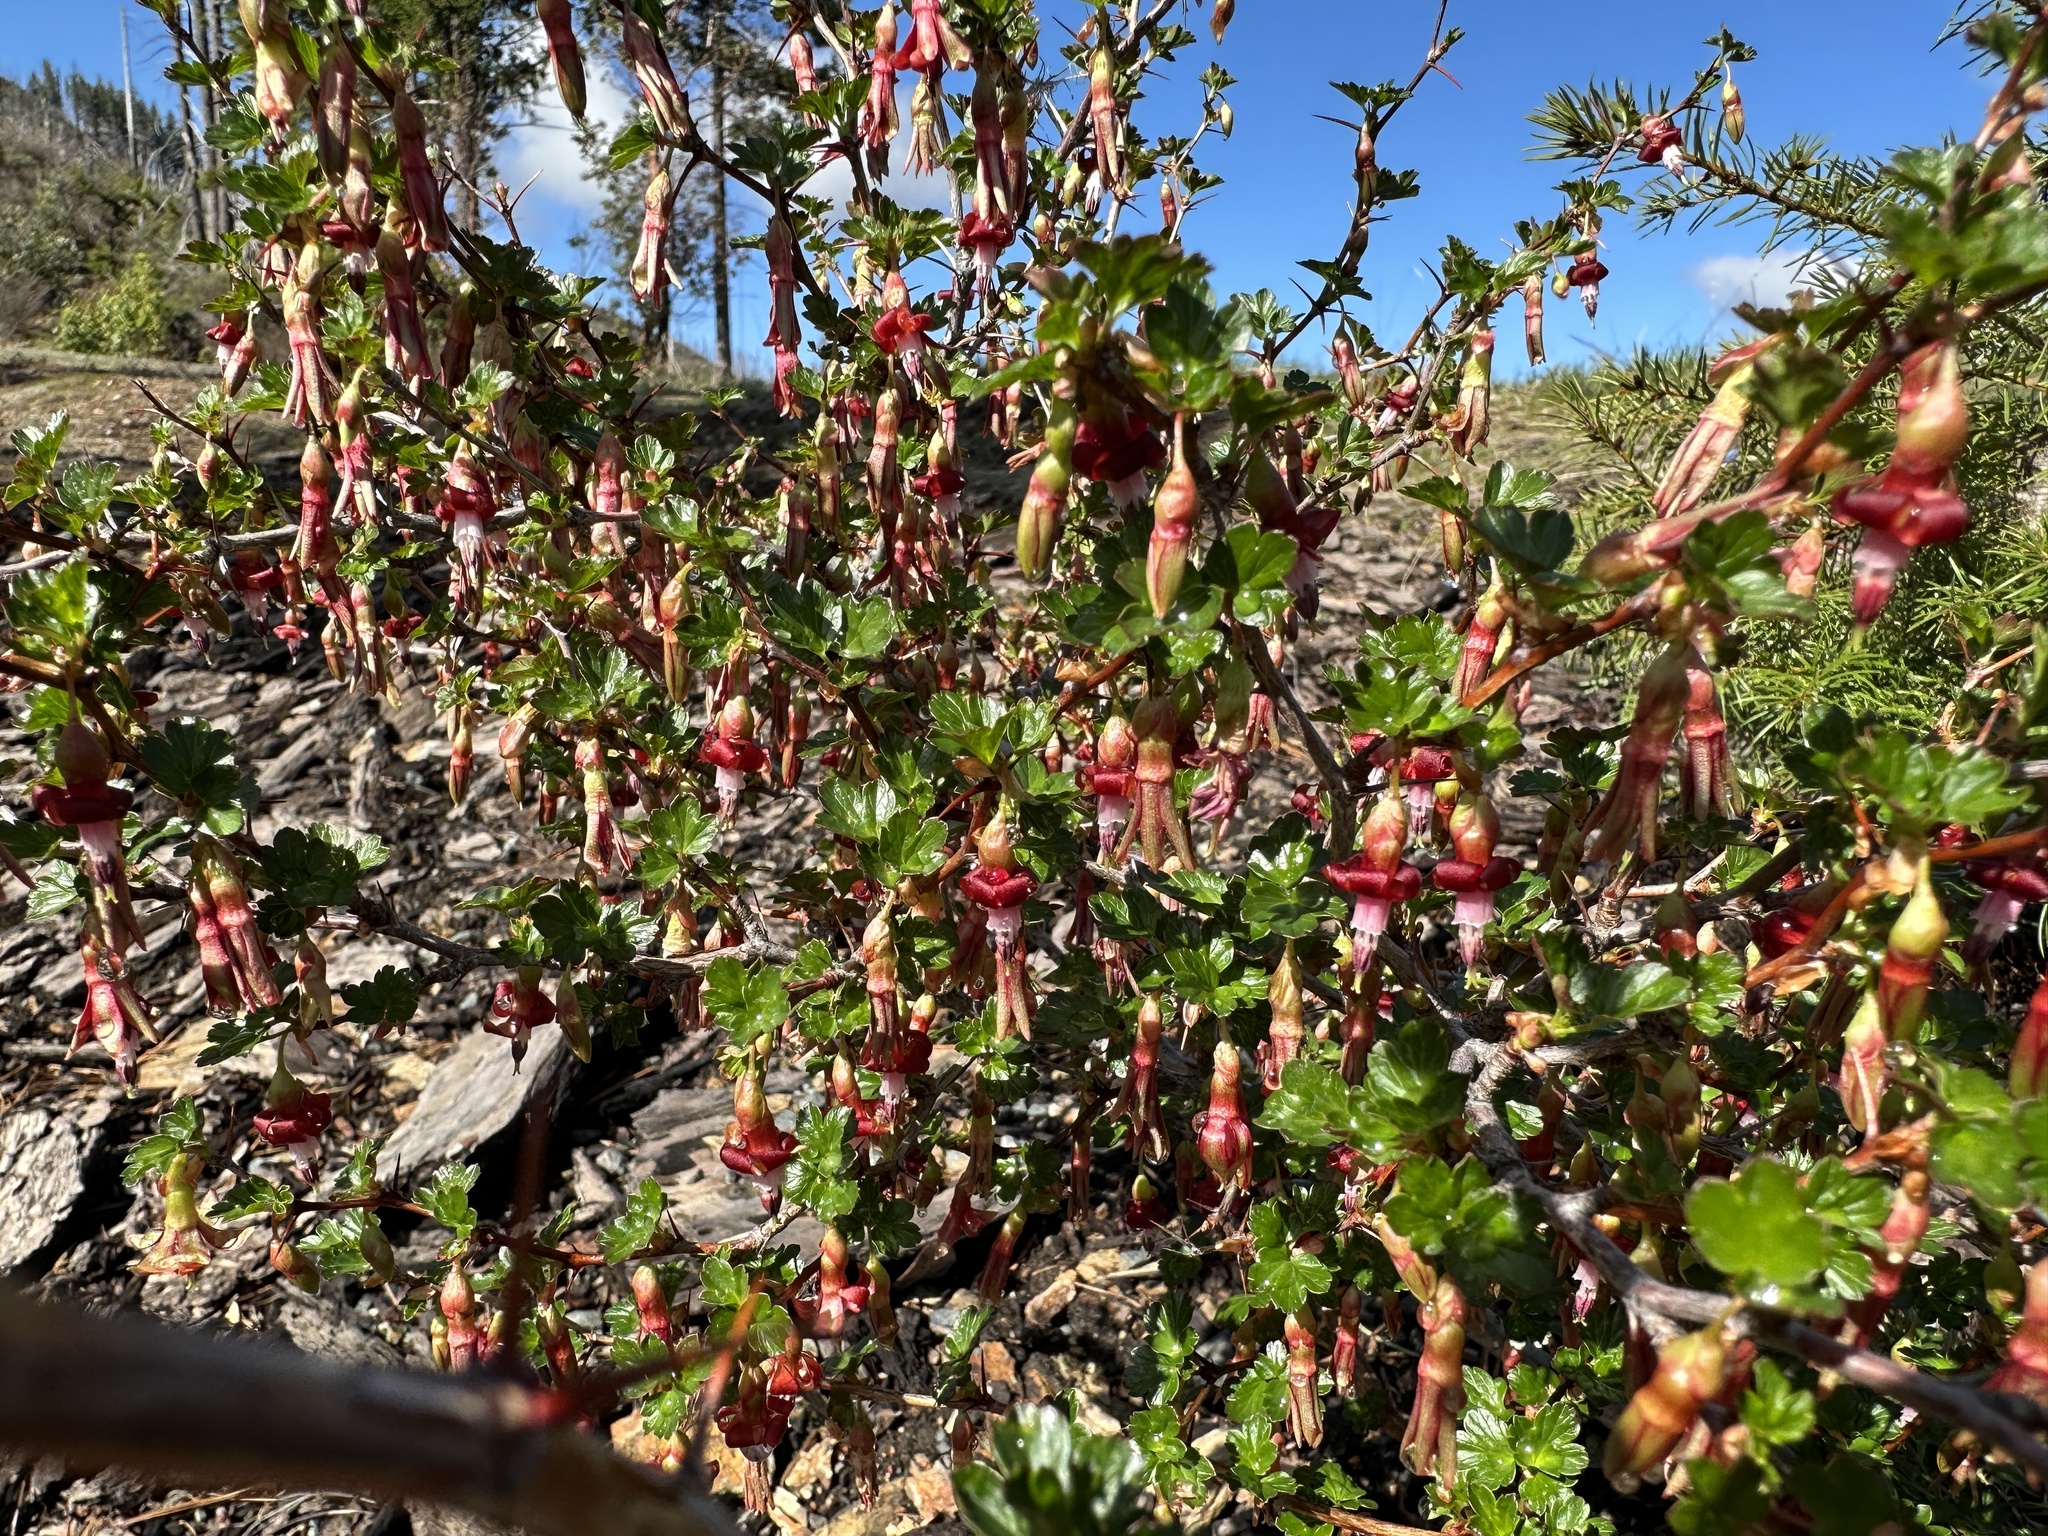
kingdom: Plantae
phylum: Tracheophyta
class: Magnoliopsida
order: Saxifragales
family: Grossulariaceae
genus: Ribes
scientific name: Ribes cruentum
